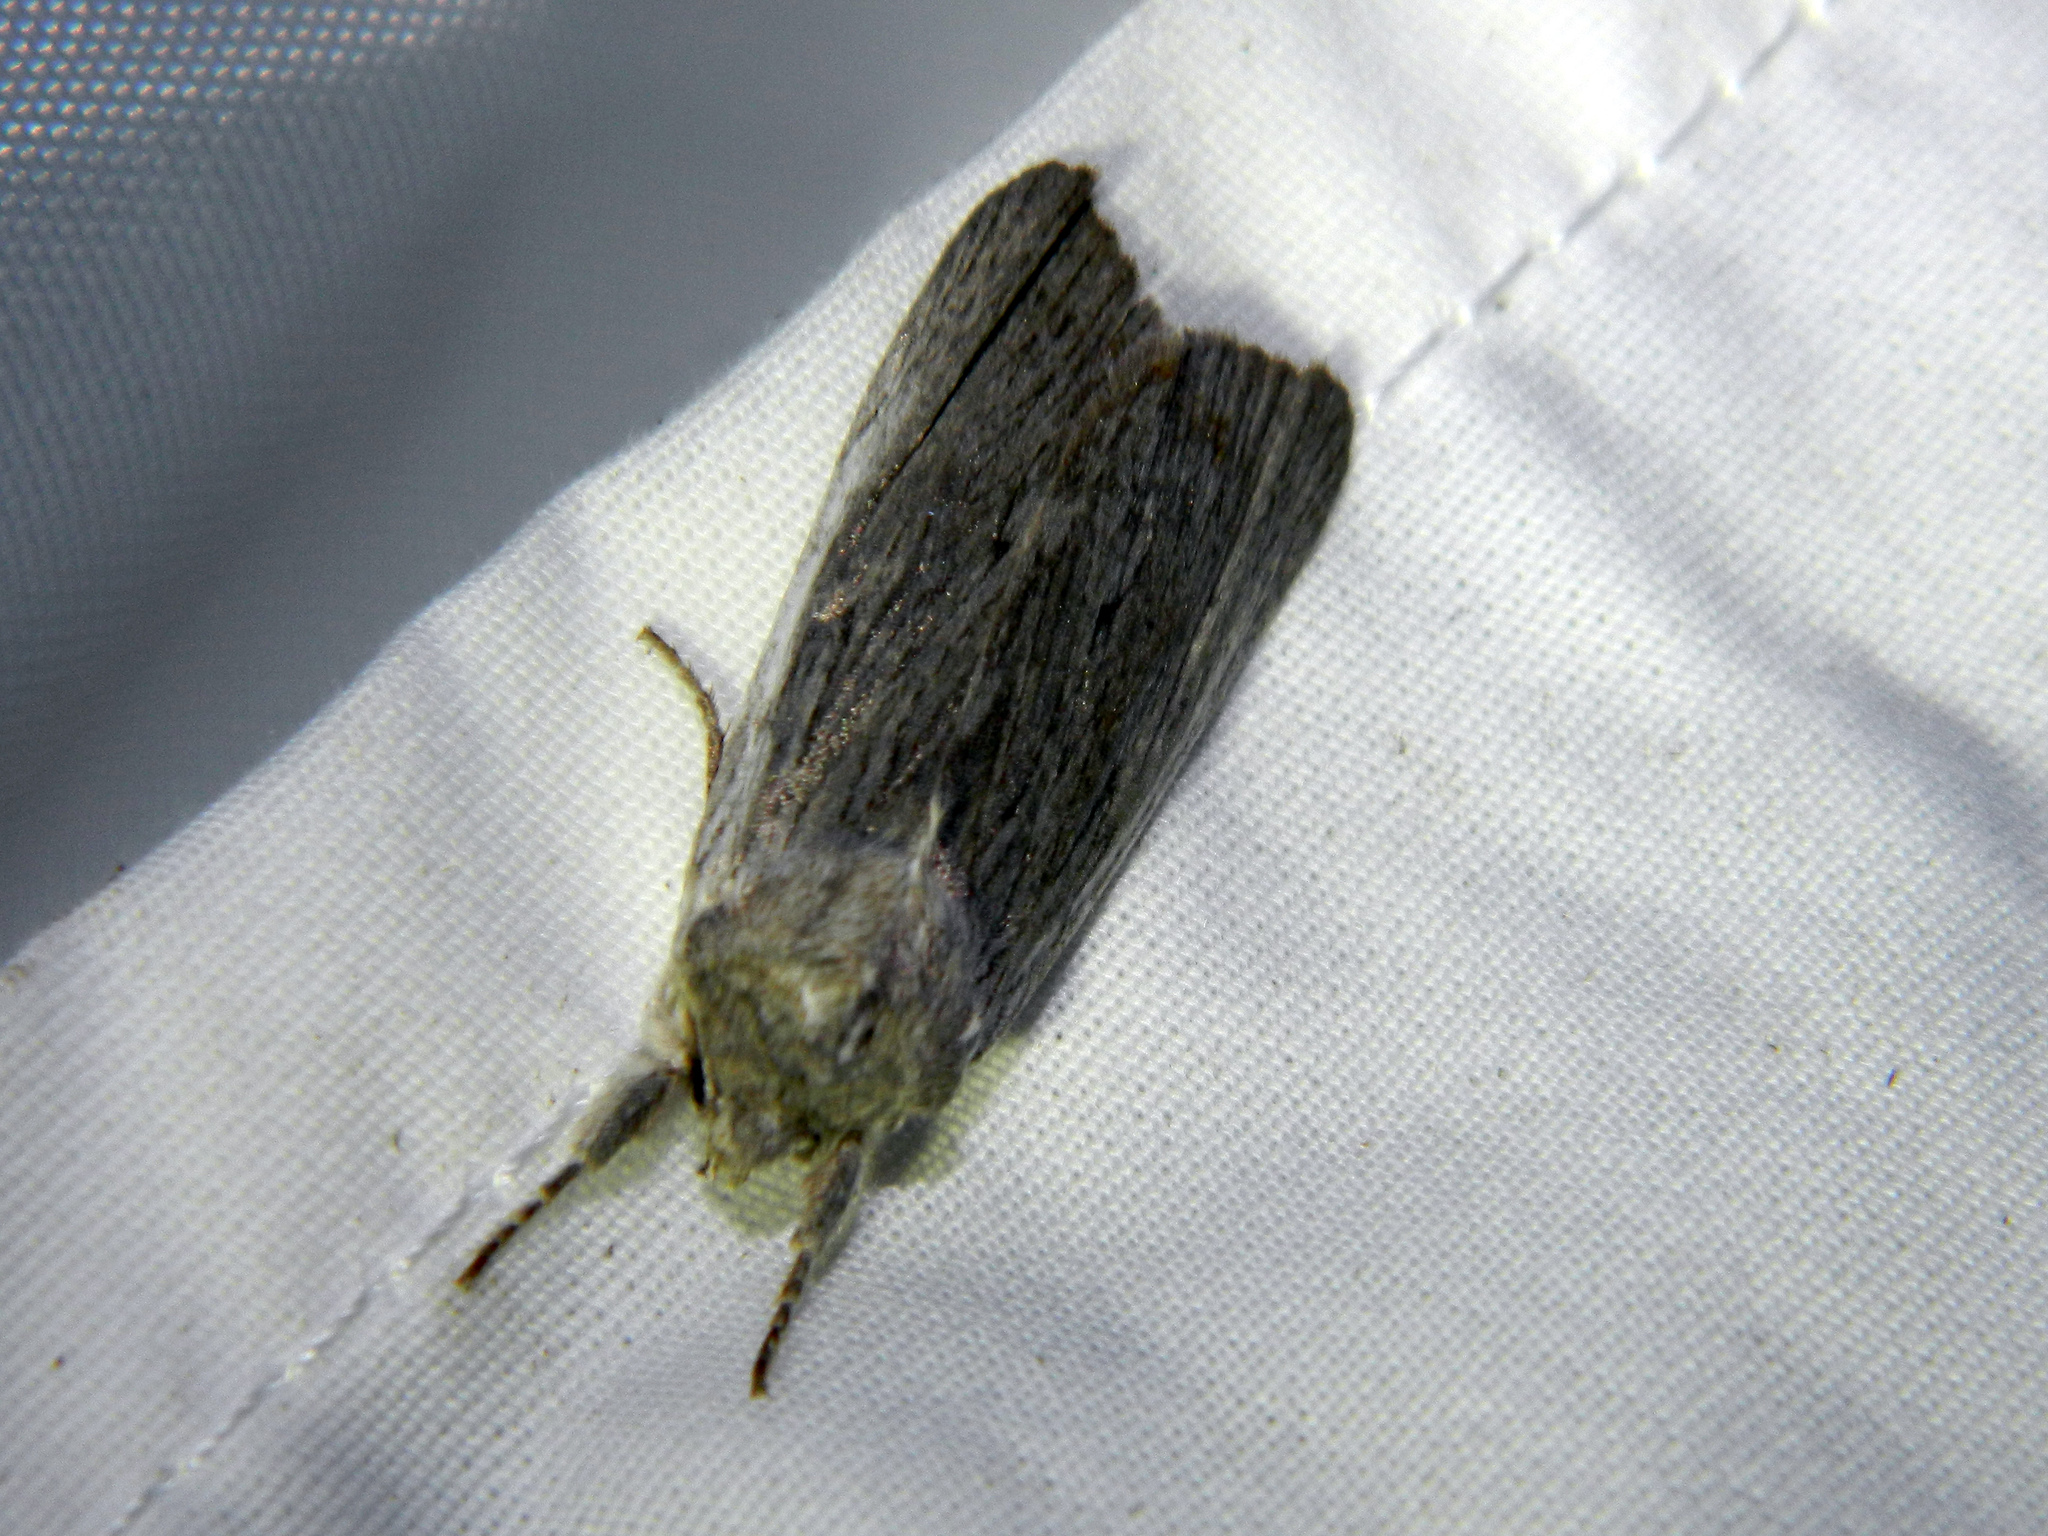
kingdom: Animalia
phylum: Arthropoda
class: Insecta
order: Lepidoptera
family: Noctuidae
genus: Lithophane
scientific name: Lithophane fagina
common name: Hoary pinion moth
